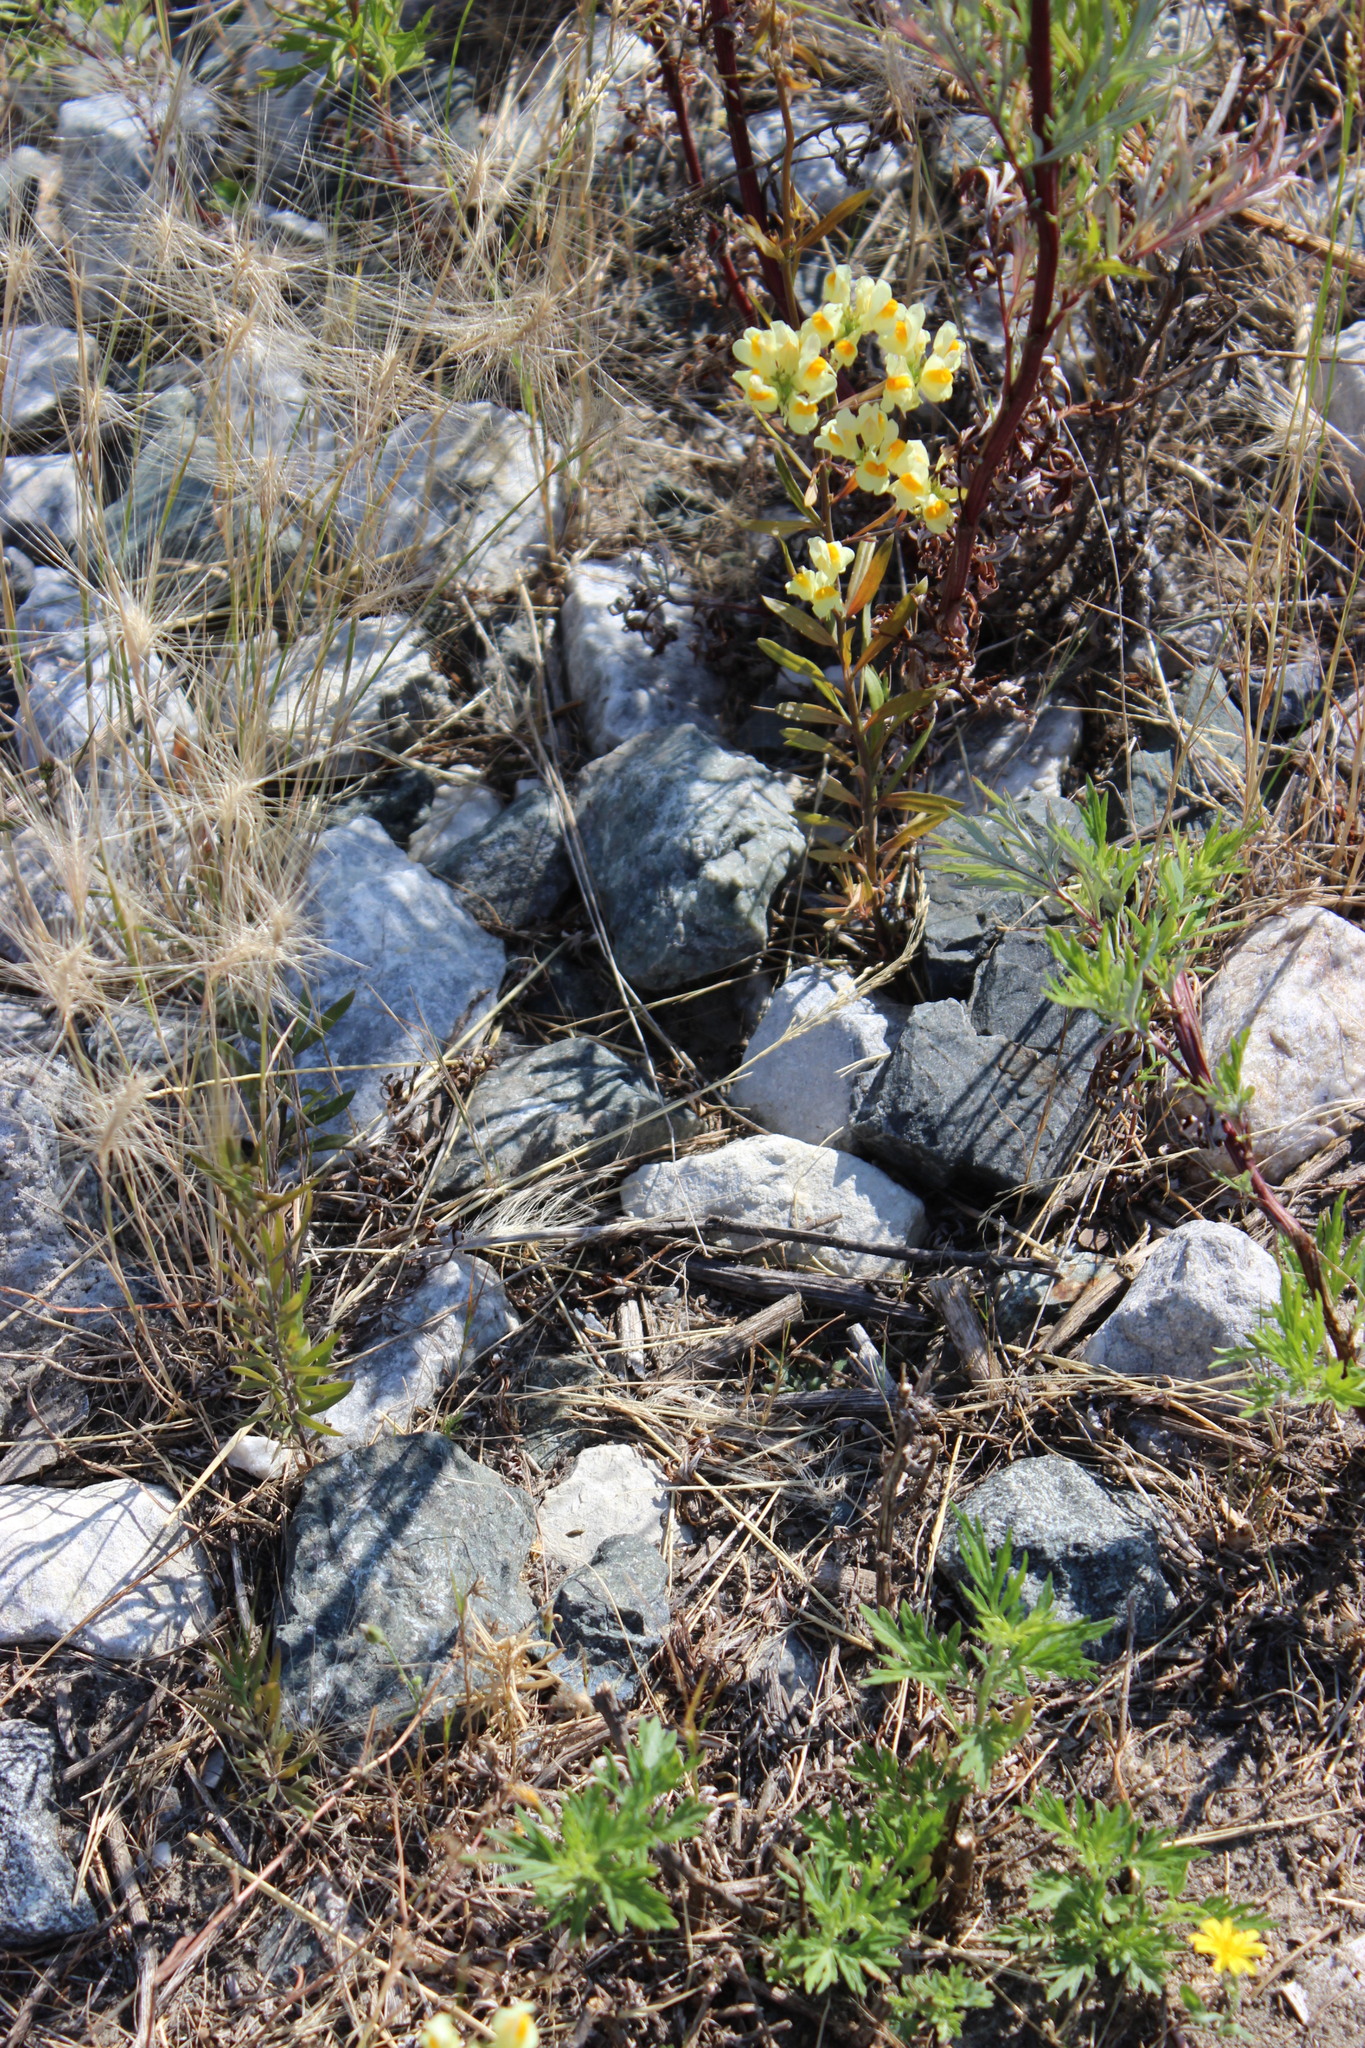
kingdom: Plantae
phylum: Tracheophyta
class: Magnoliopsida
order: Lamiales
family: Plantaginaceae
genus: Linaria
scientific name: Linaria vulgaris
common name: Butter and eggs
